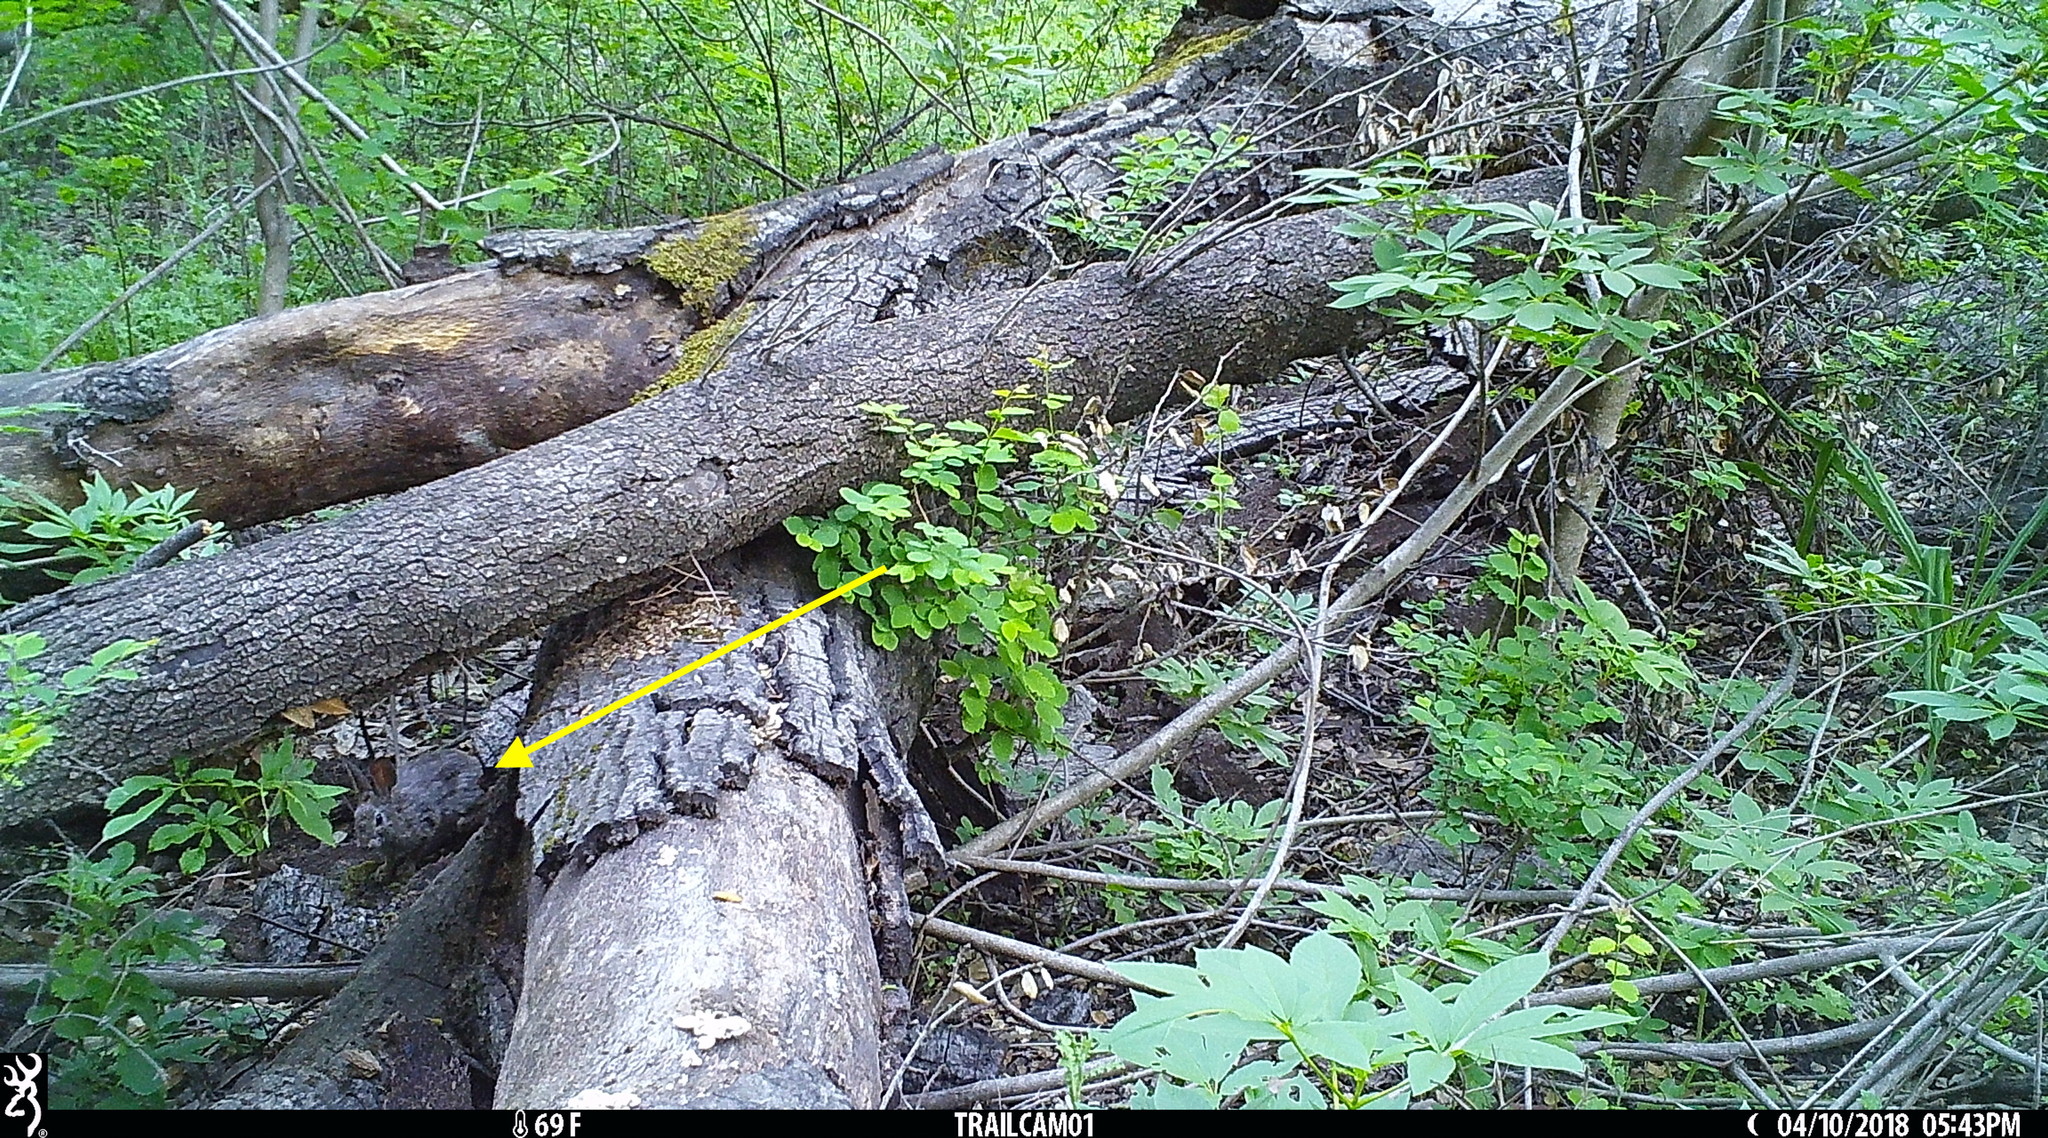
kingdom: Animalia
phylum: Chordata
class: Mammalia
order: Lagomorpha
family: Leporidae
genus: Sylvilagus
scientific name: Sylvilagus bachmani
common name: Brush rabbit
